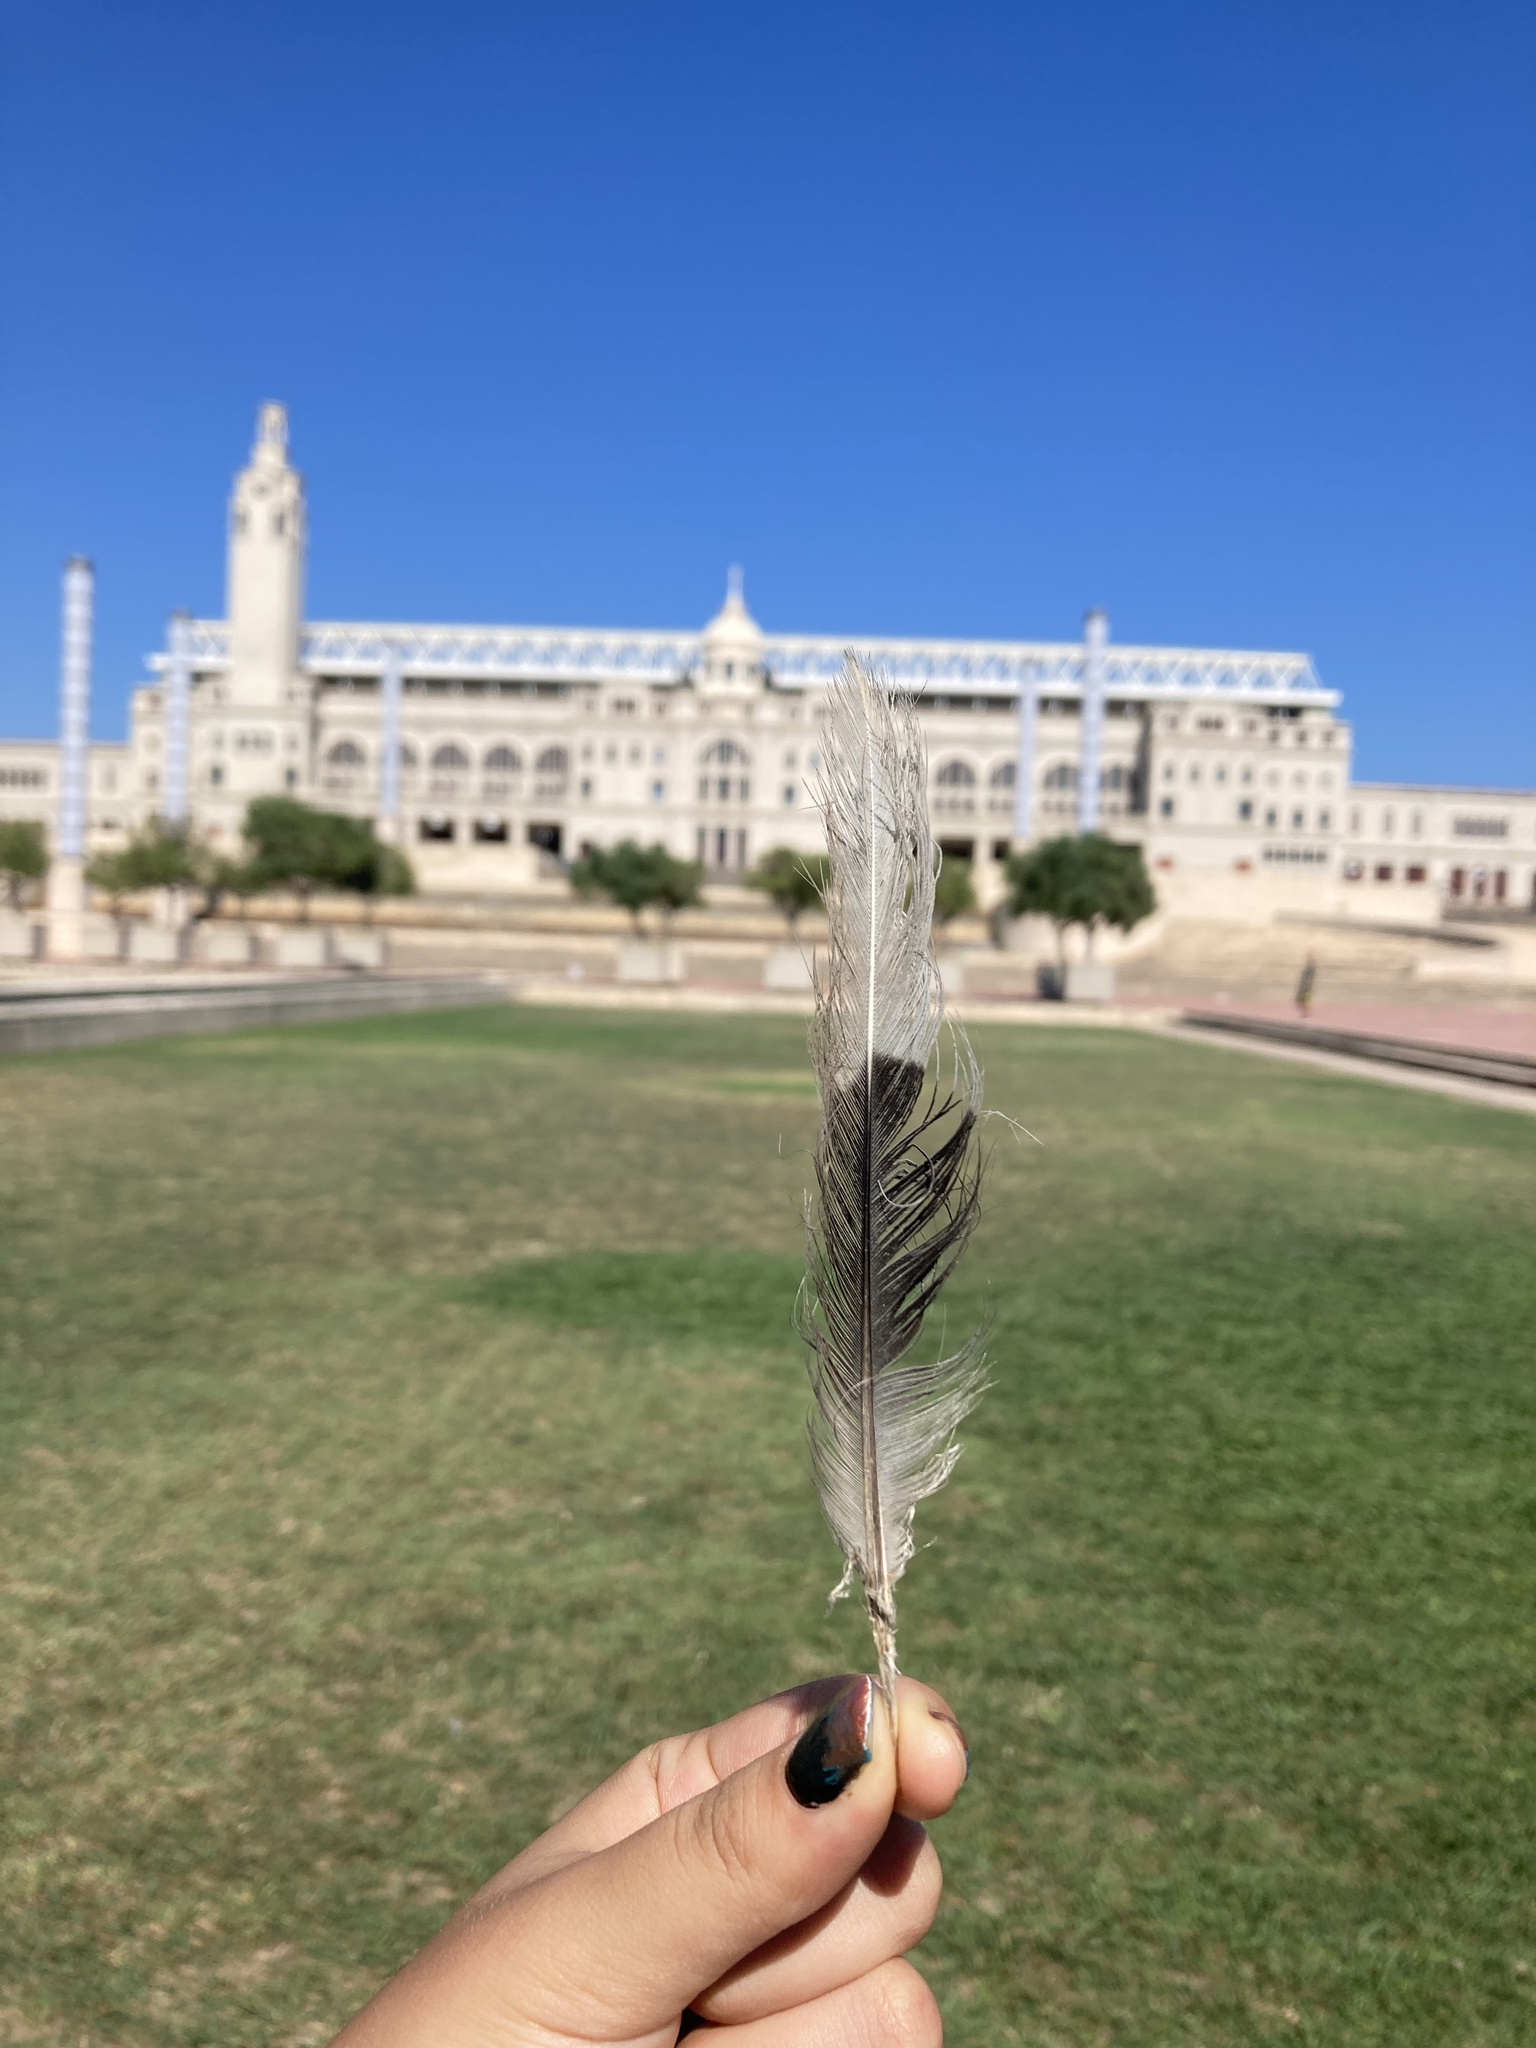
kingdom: Animalia
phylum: Chordata
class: Aves
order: Columbiformes
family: Columbidae
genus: Streptopelia
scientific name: Streptopelia decaocto
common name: Eurasian collared dove
